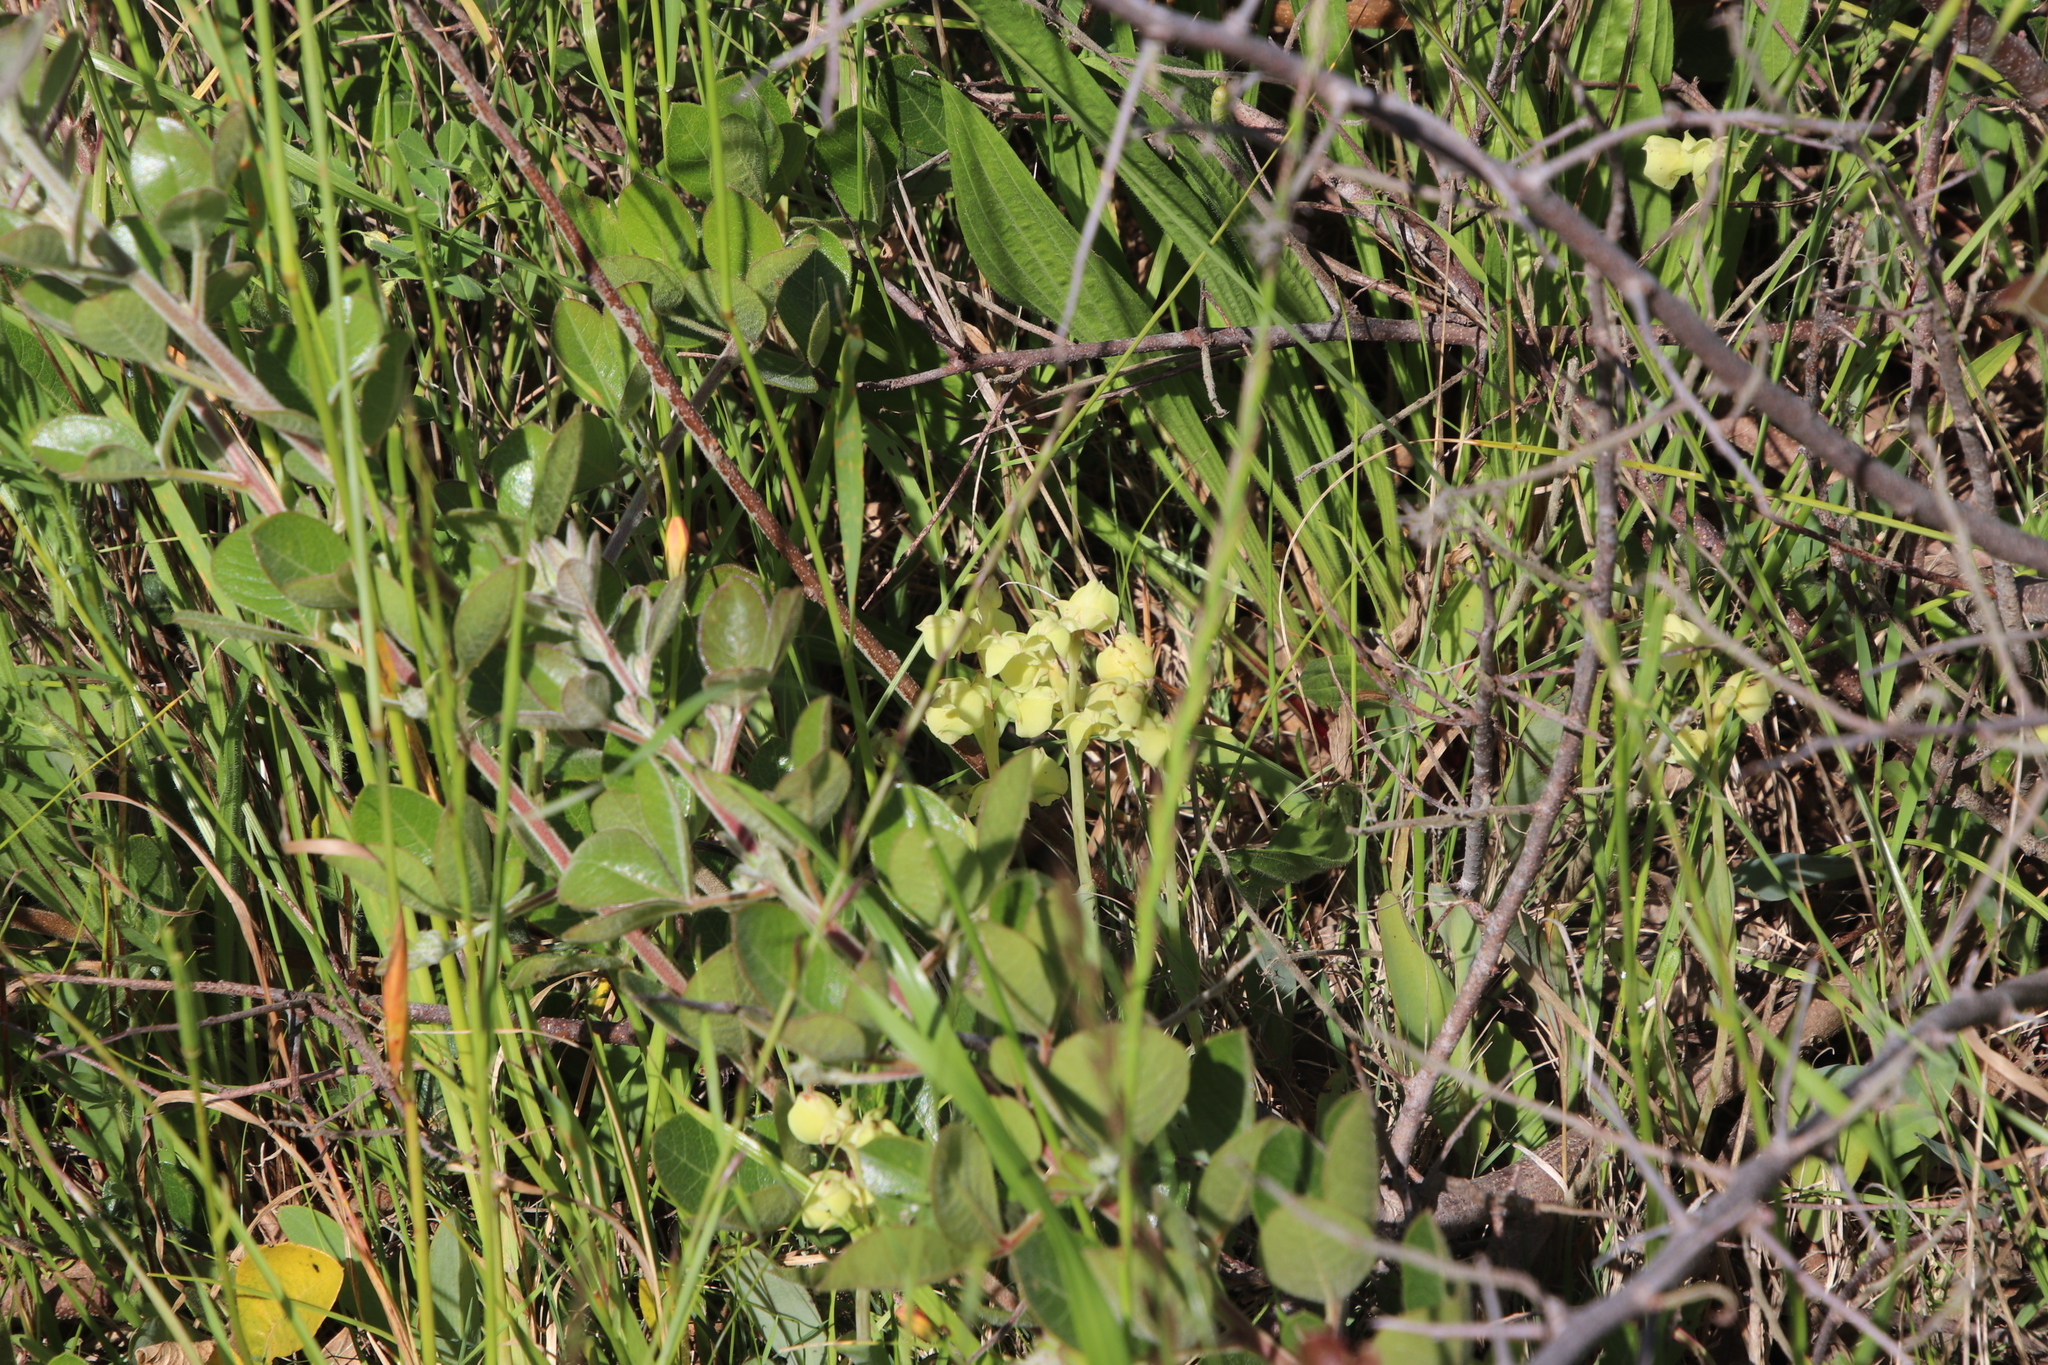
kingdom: Plantae
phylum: Tracheophyta
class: Liliopsida
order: Asparagales
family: Orchidaceae
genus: Pterygodium
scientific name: Pterygodium catholicum
